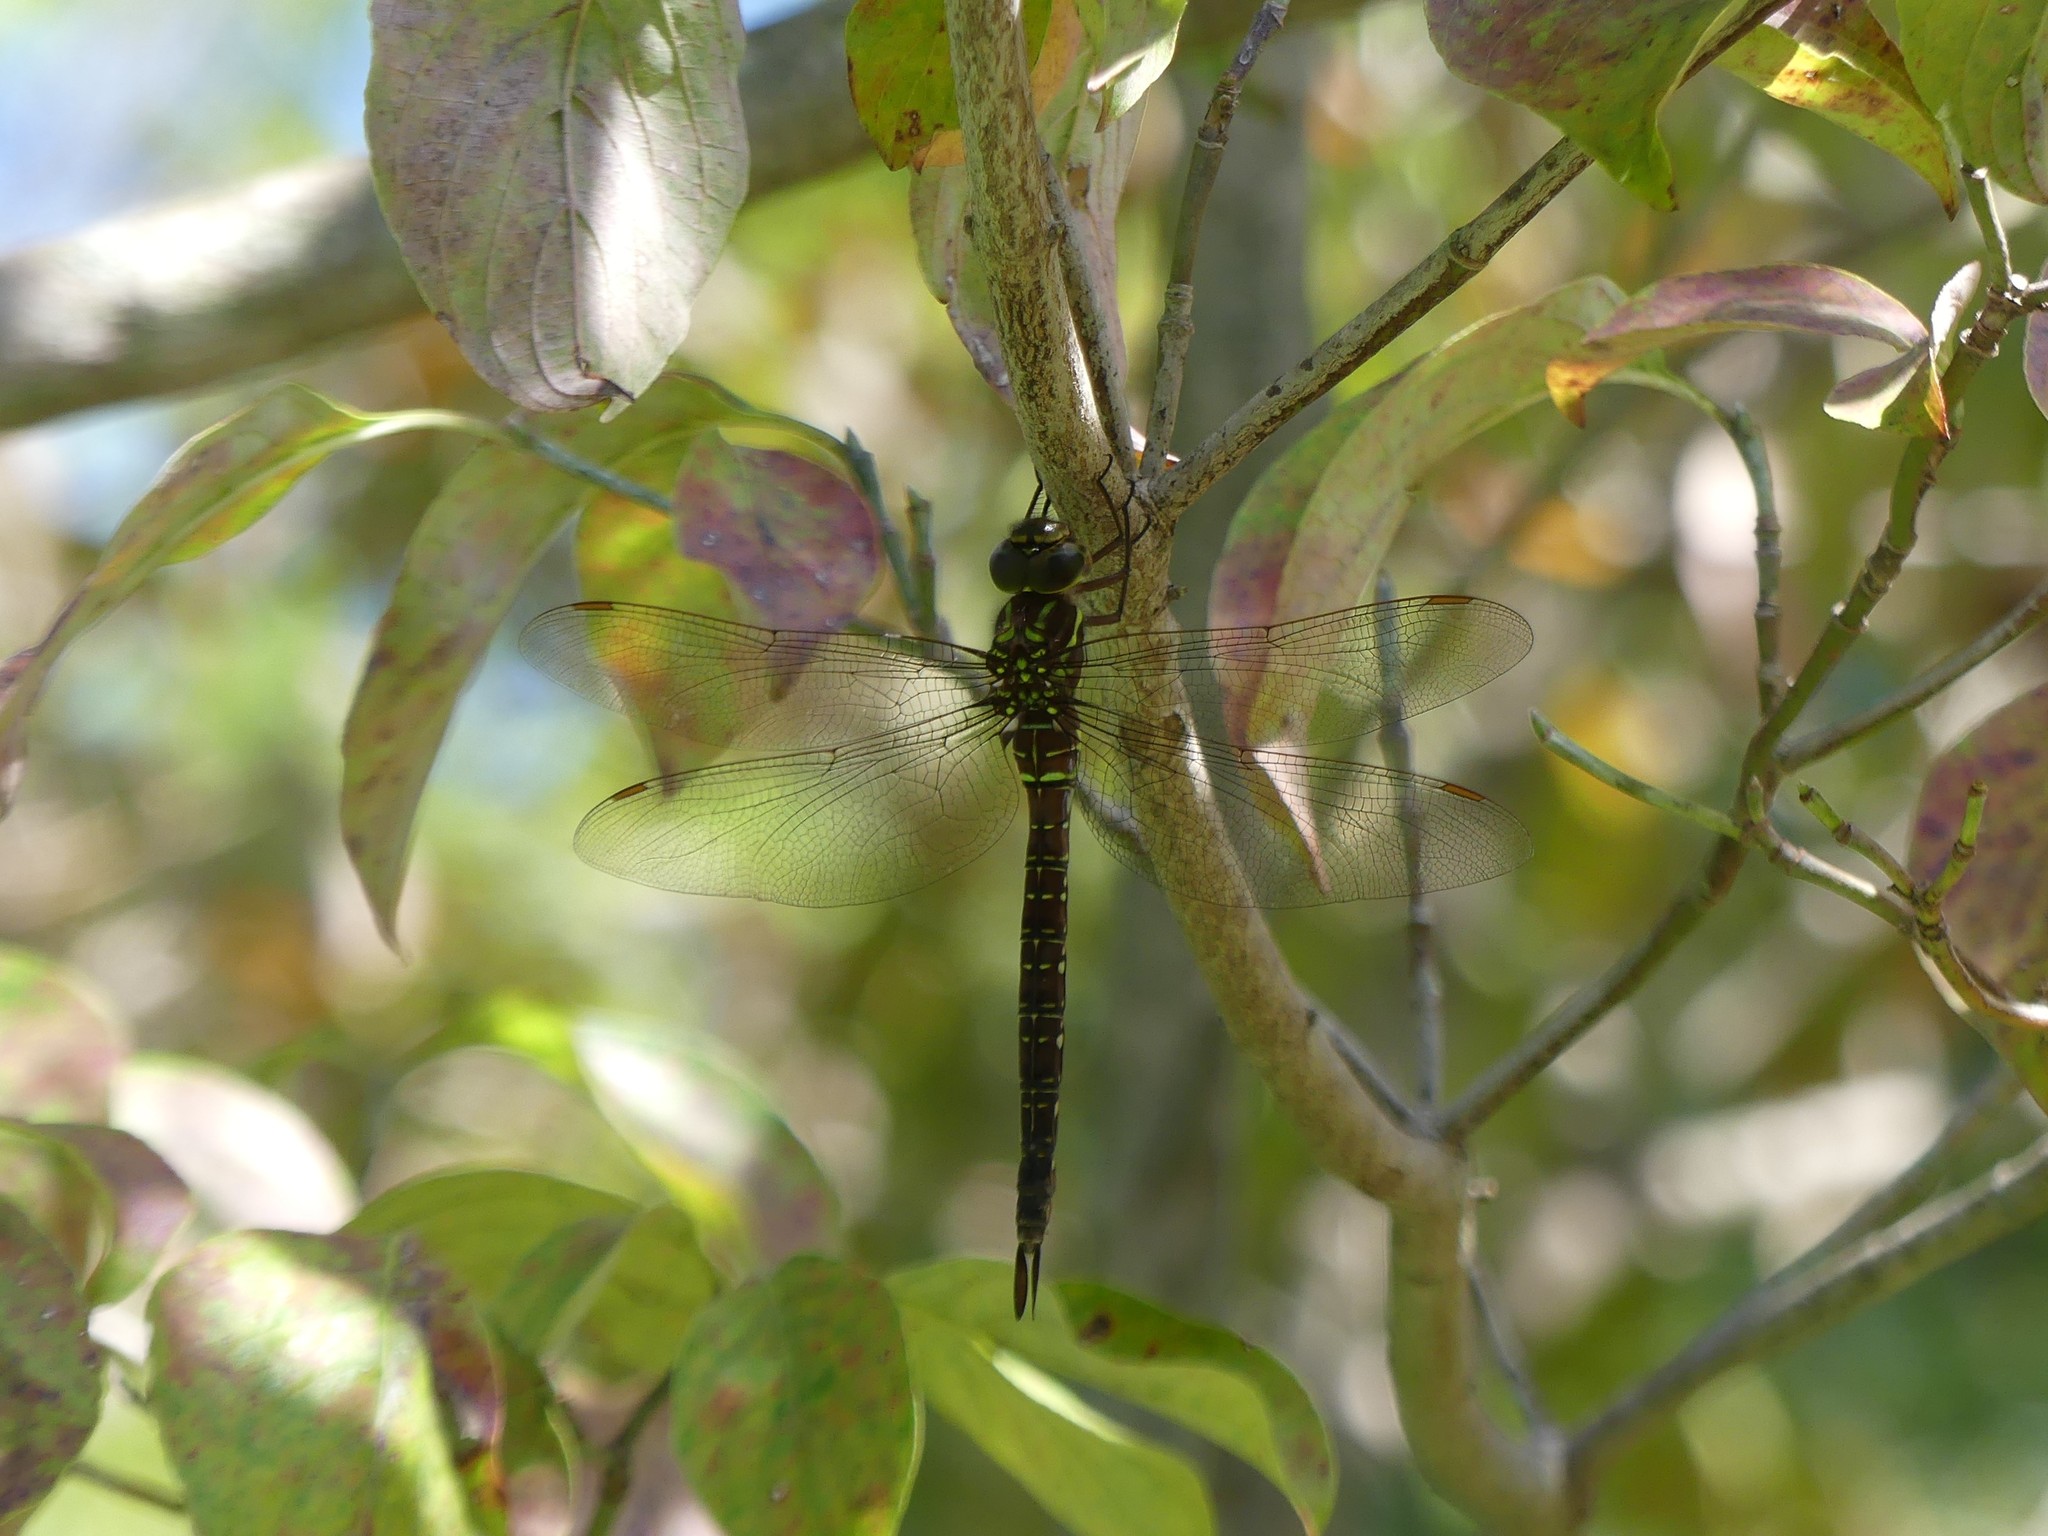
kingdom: Animalia
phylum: Arthropoda
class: Insecta
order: Odonata
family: Aeshnidae
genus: Aeshna
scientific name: Aeshna umbrosa
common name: Shadow darner
